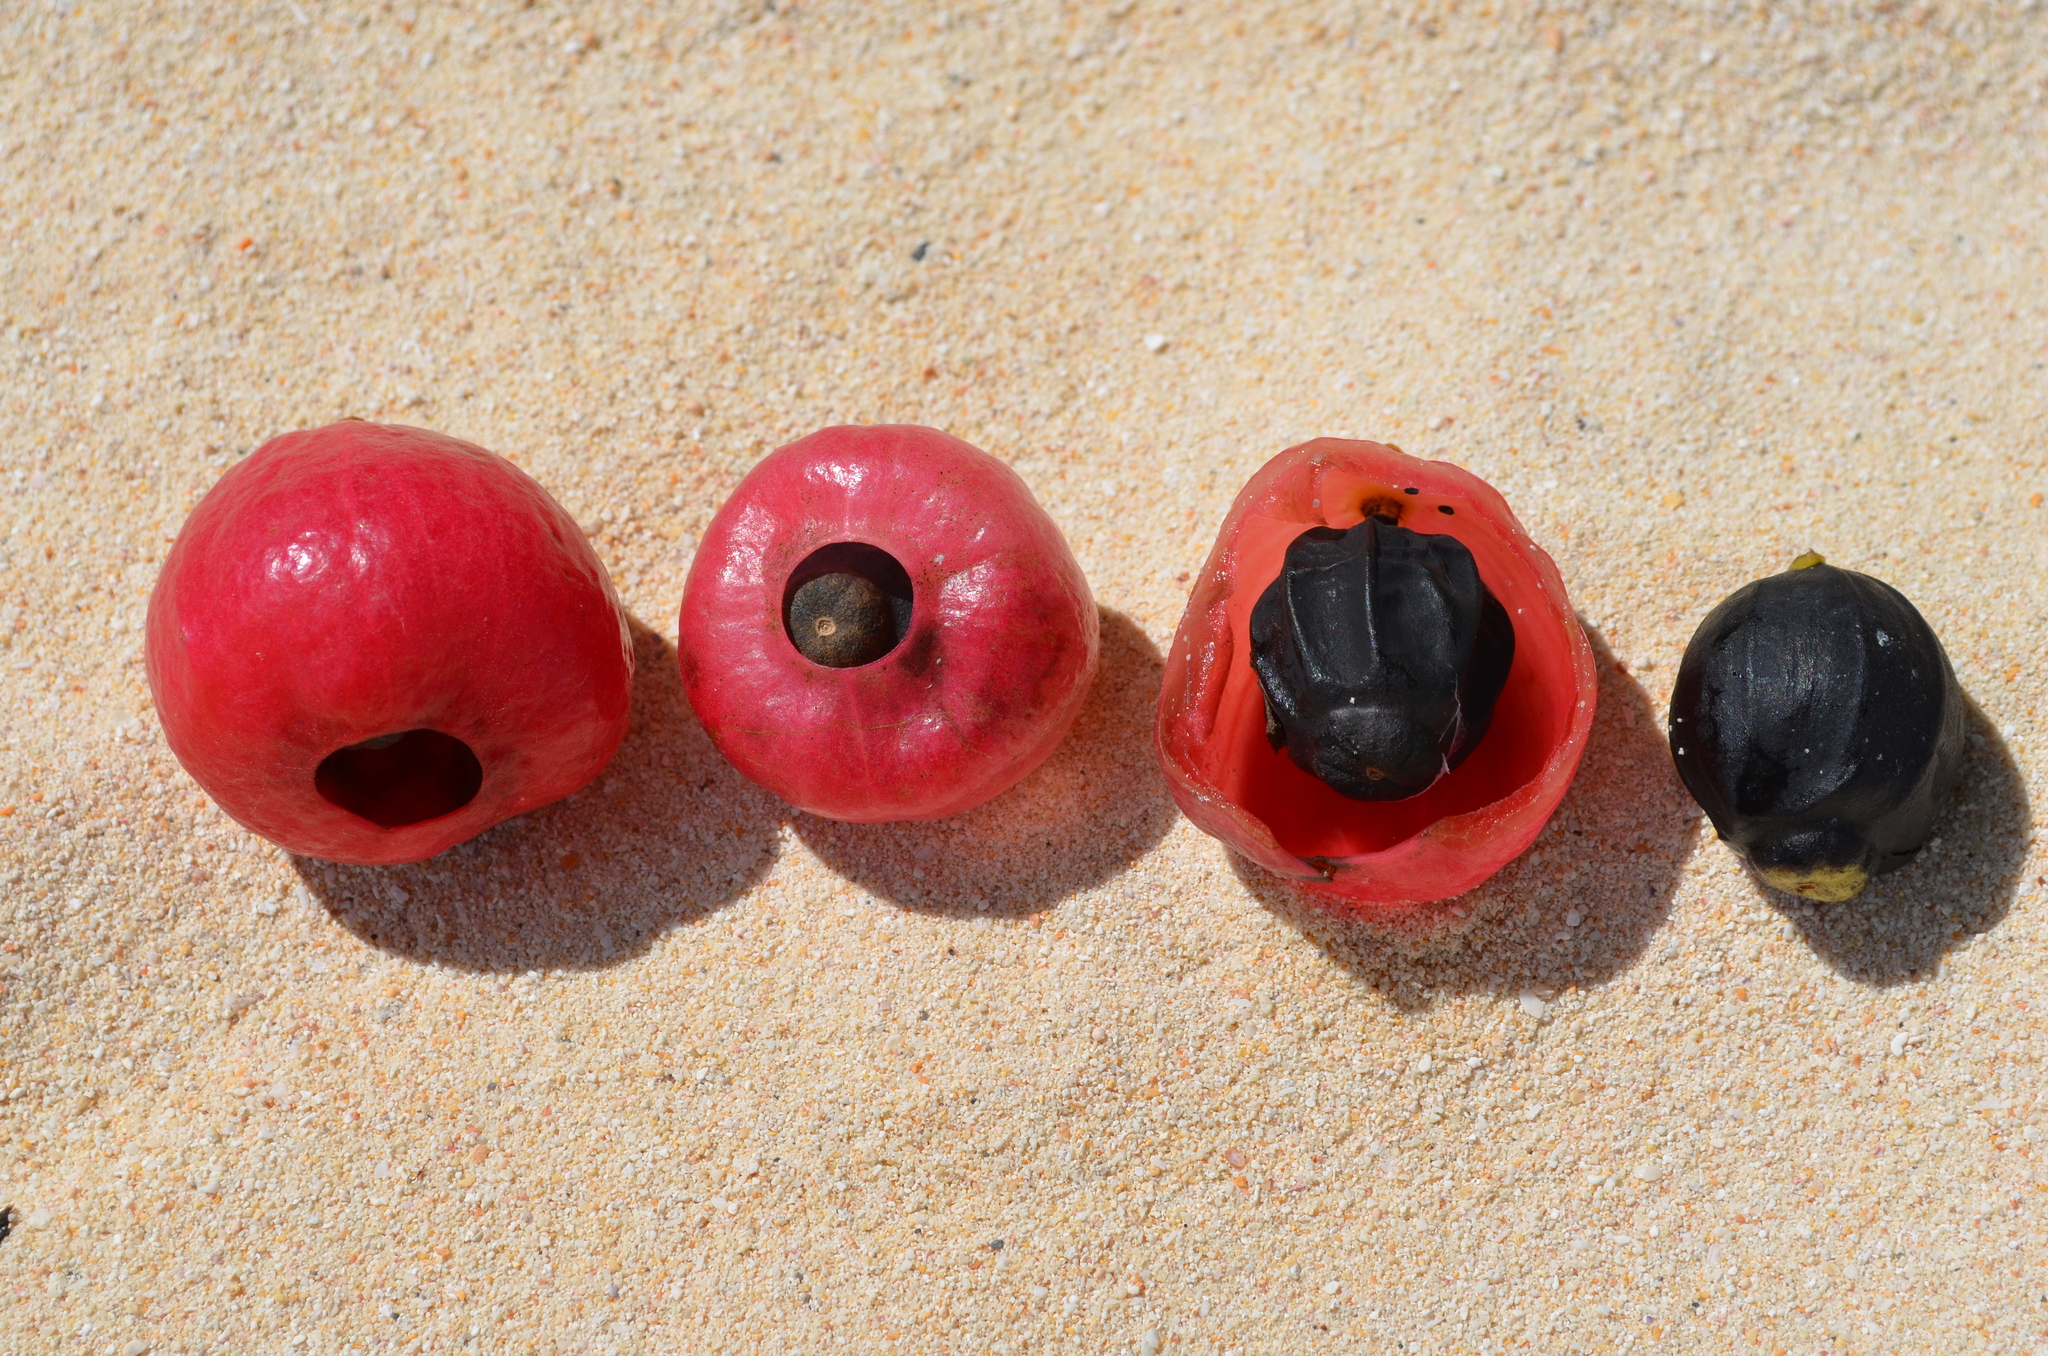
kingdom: Plantae
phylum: Tracheophyta
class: Magnoliopsida
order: Laurales
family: Hernandiaceae
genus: Hernandia
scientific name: Hernandia sonora
